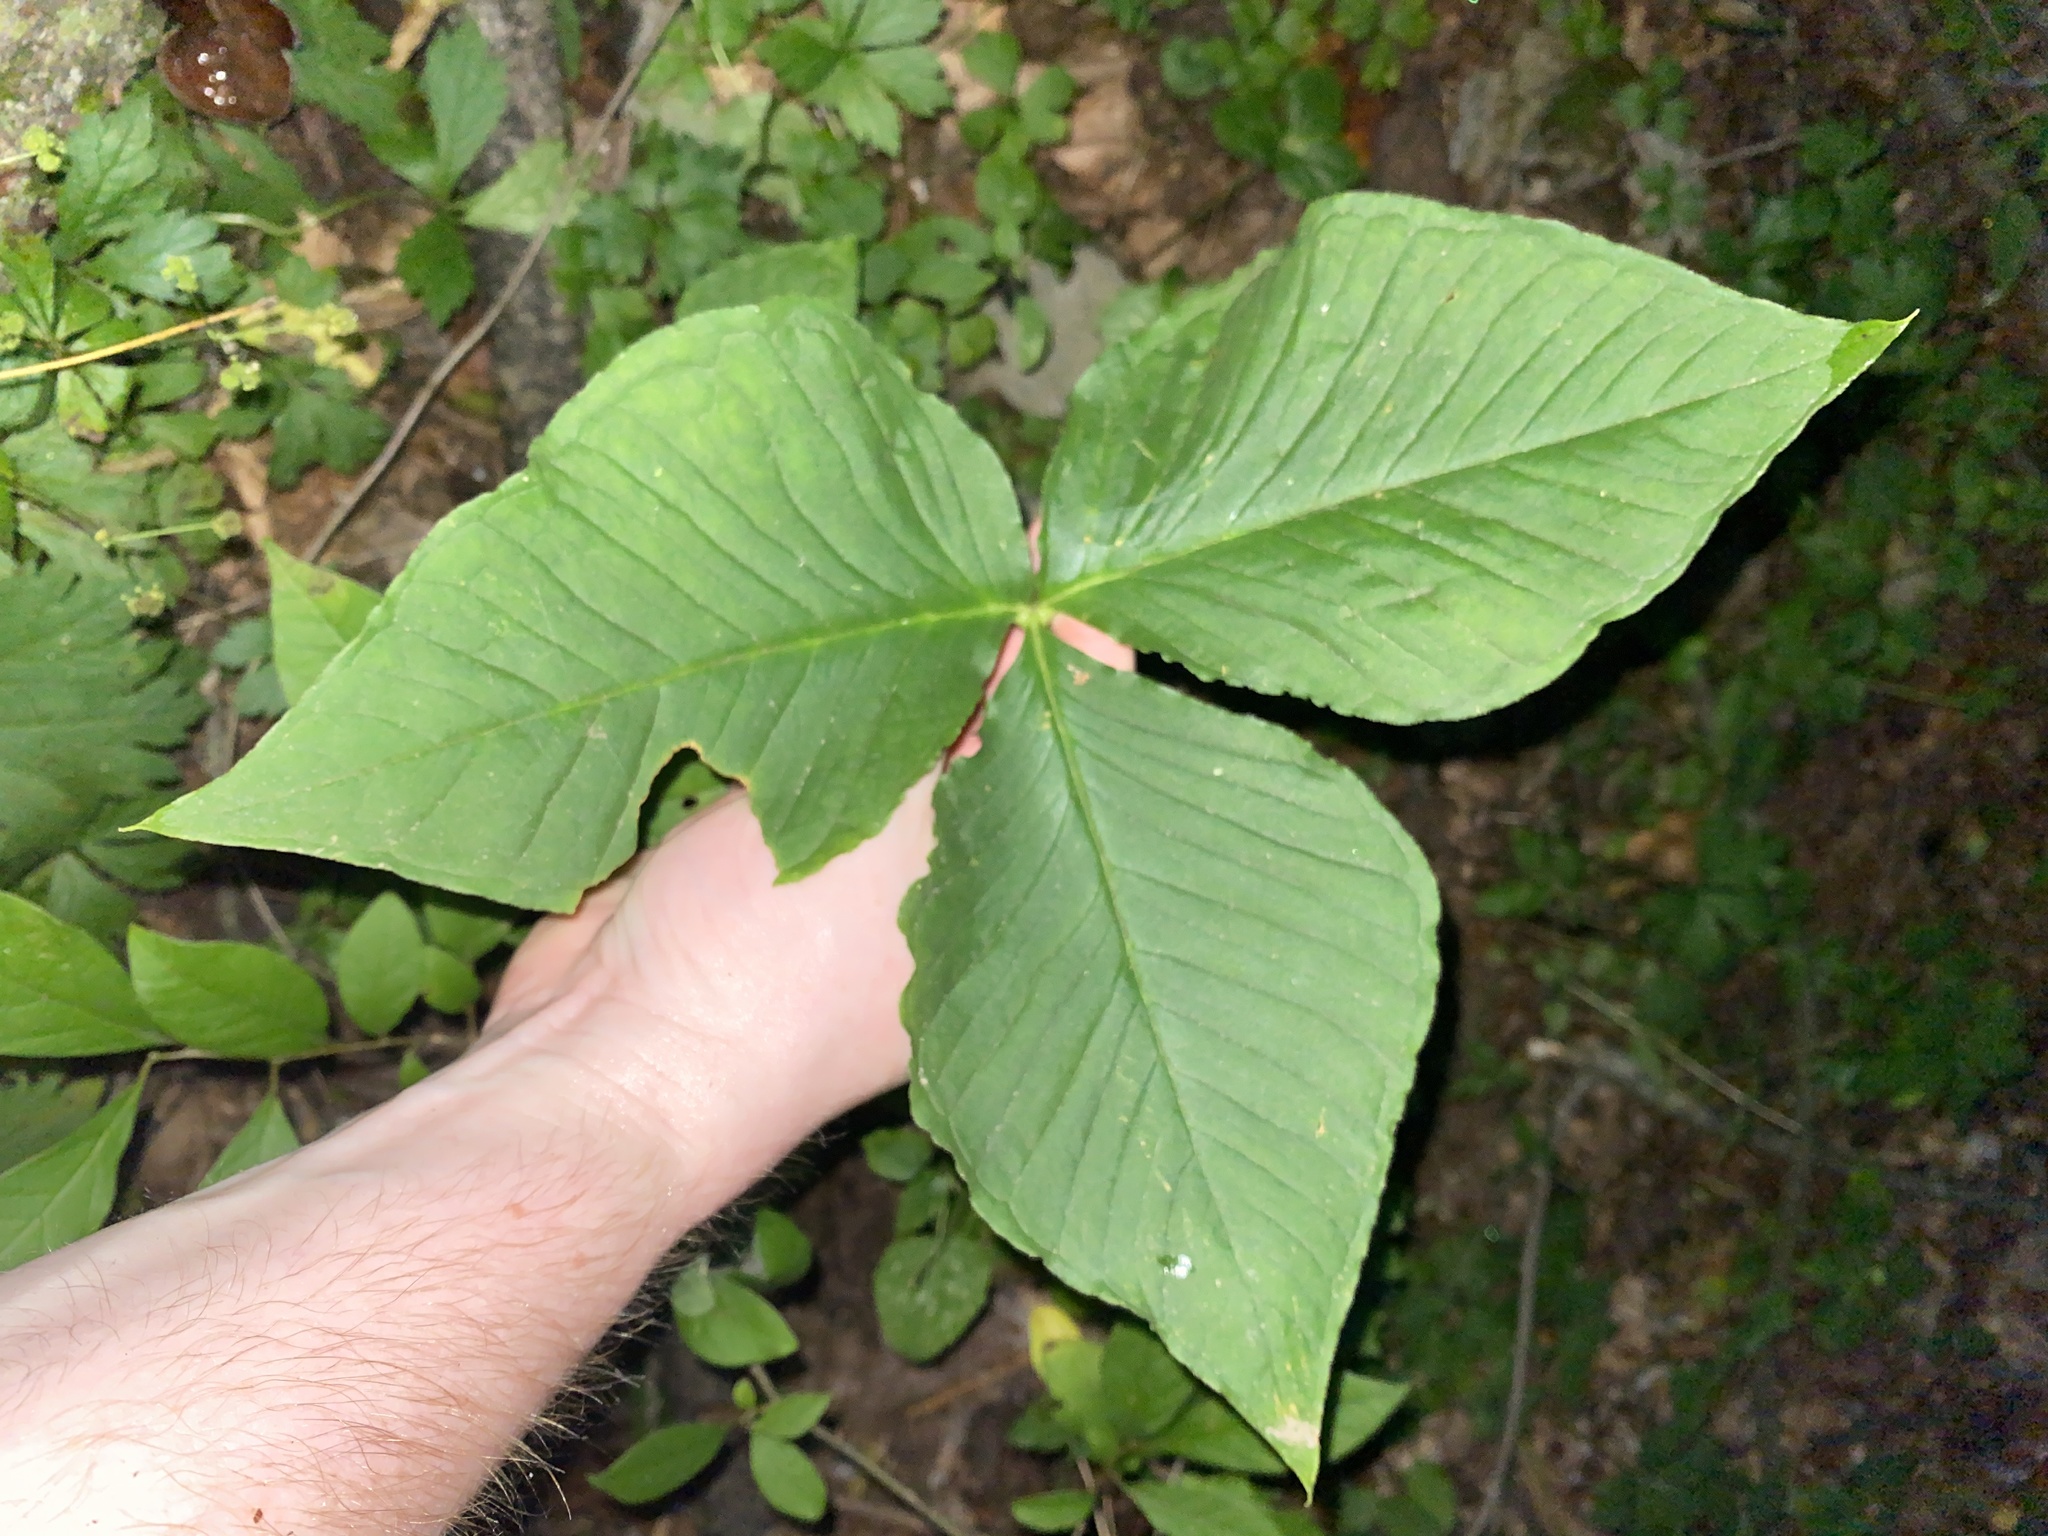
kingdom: Plantae
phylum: Tracheophyta
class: Liliopsida
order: Alismatales
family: Araceae
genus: Arisaema
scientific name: Arisaema triphyllum
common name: Jack-in-the-pulpit
